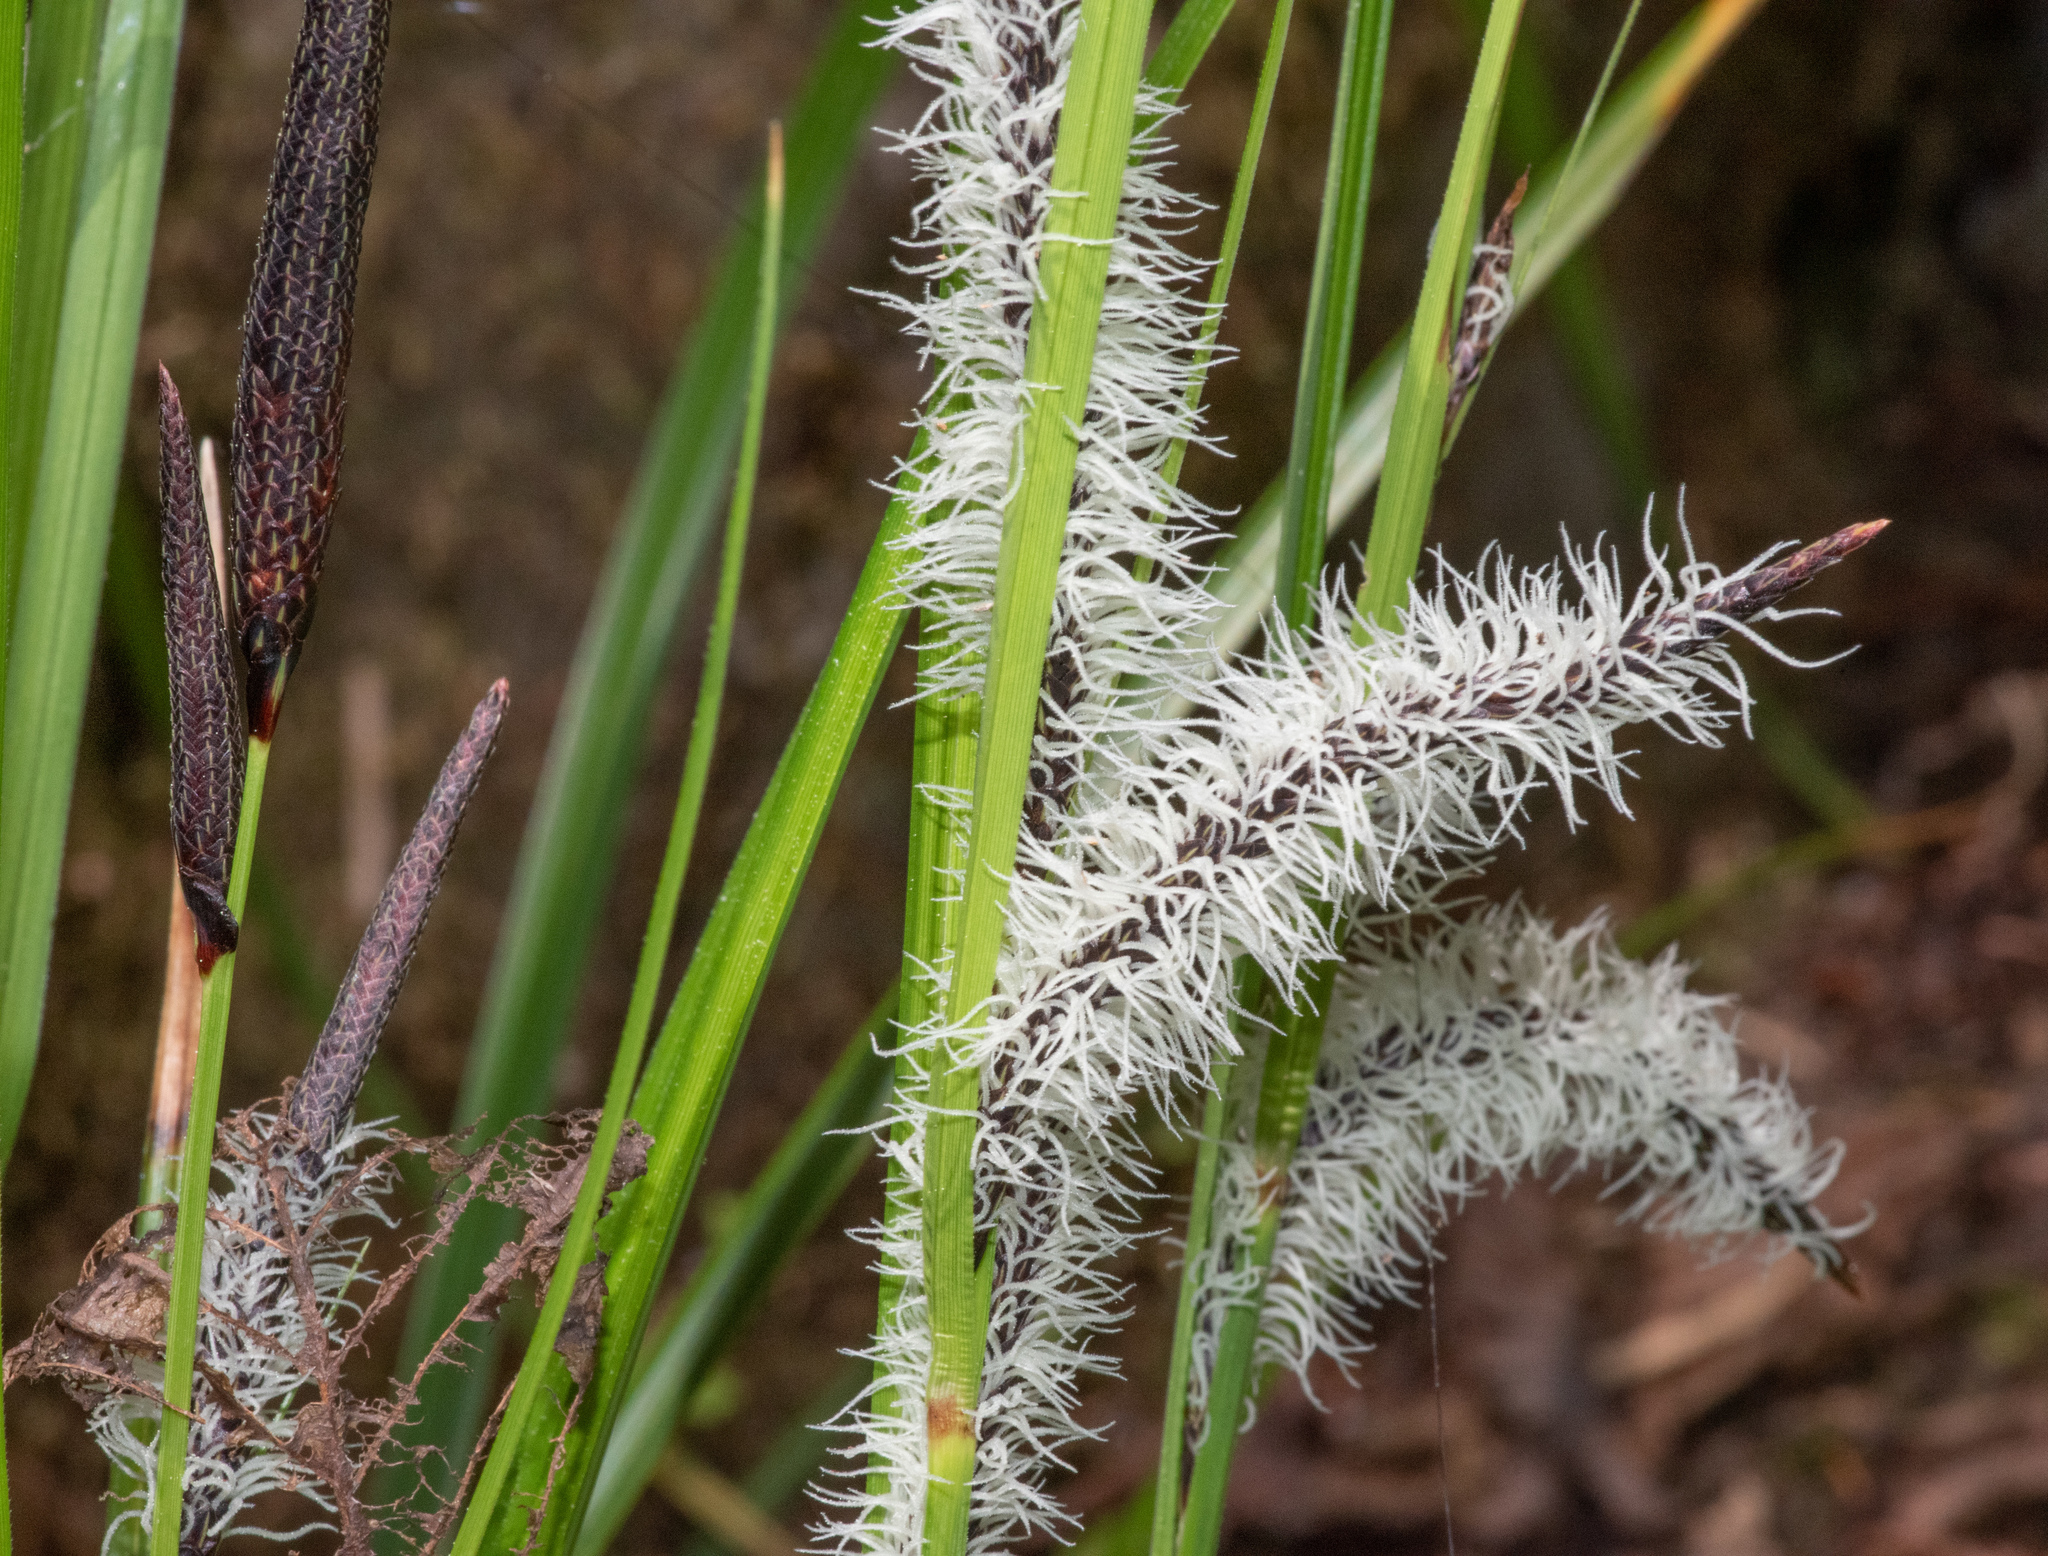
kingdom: Plantae
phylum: Tracheophyta
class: Liliopsida
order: Poales
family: Cyperaceae
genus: Carex
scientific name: Carex obnupta
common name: Slough sedge
